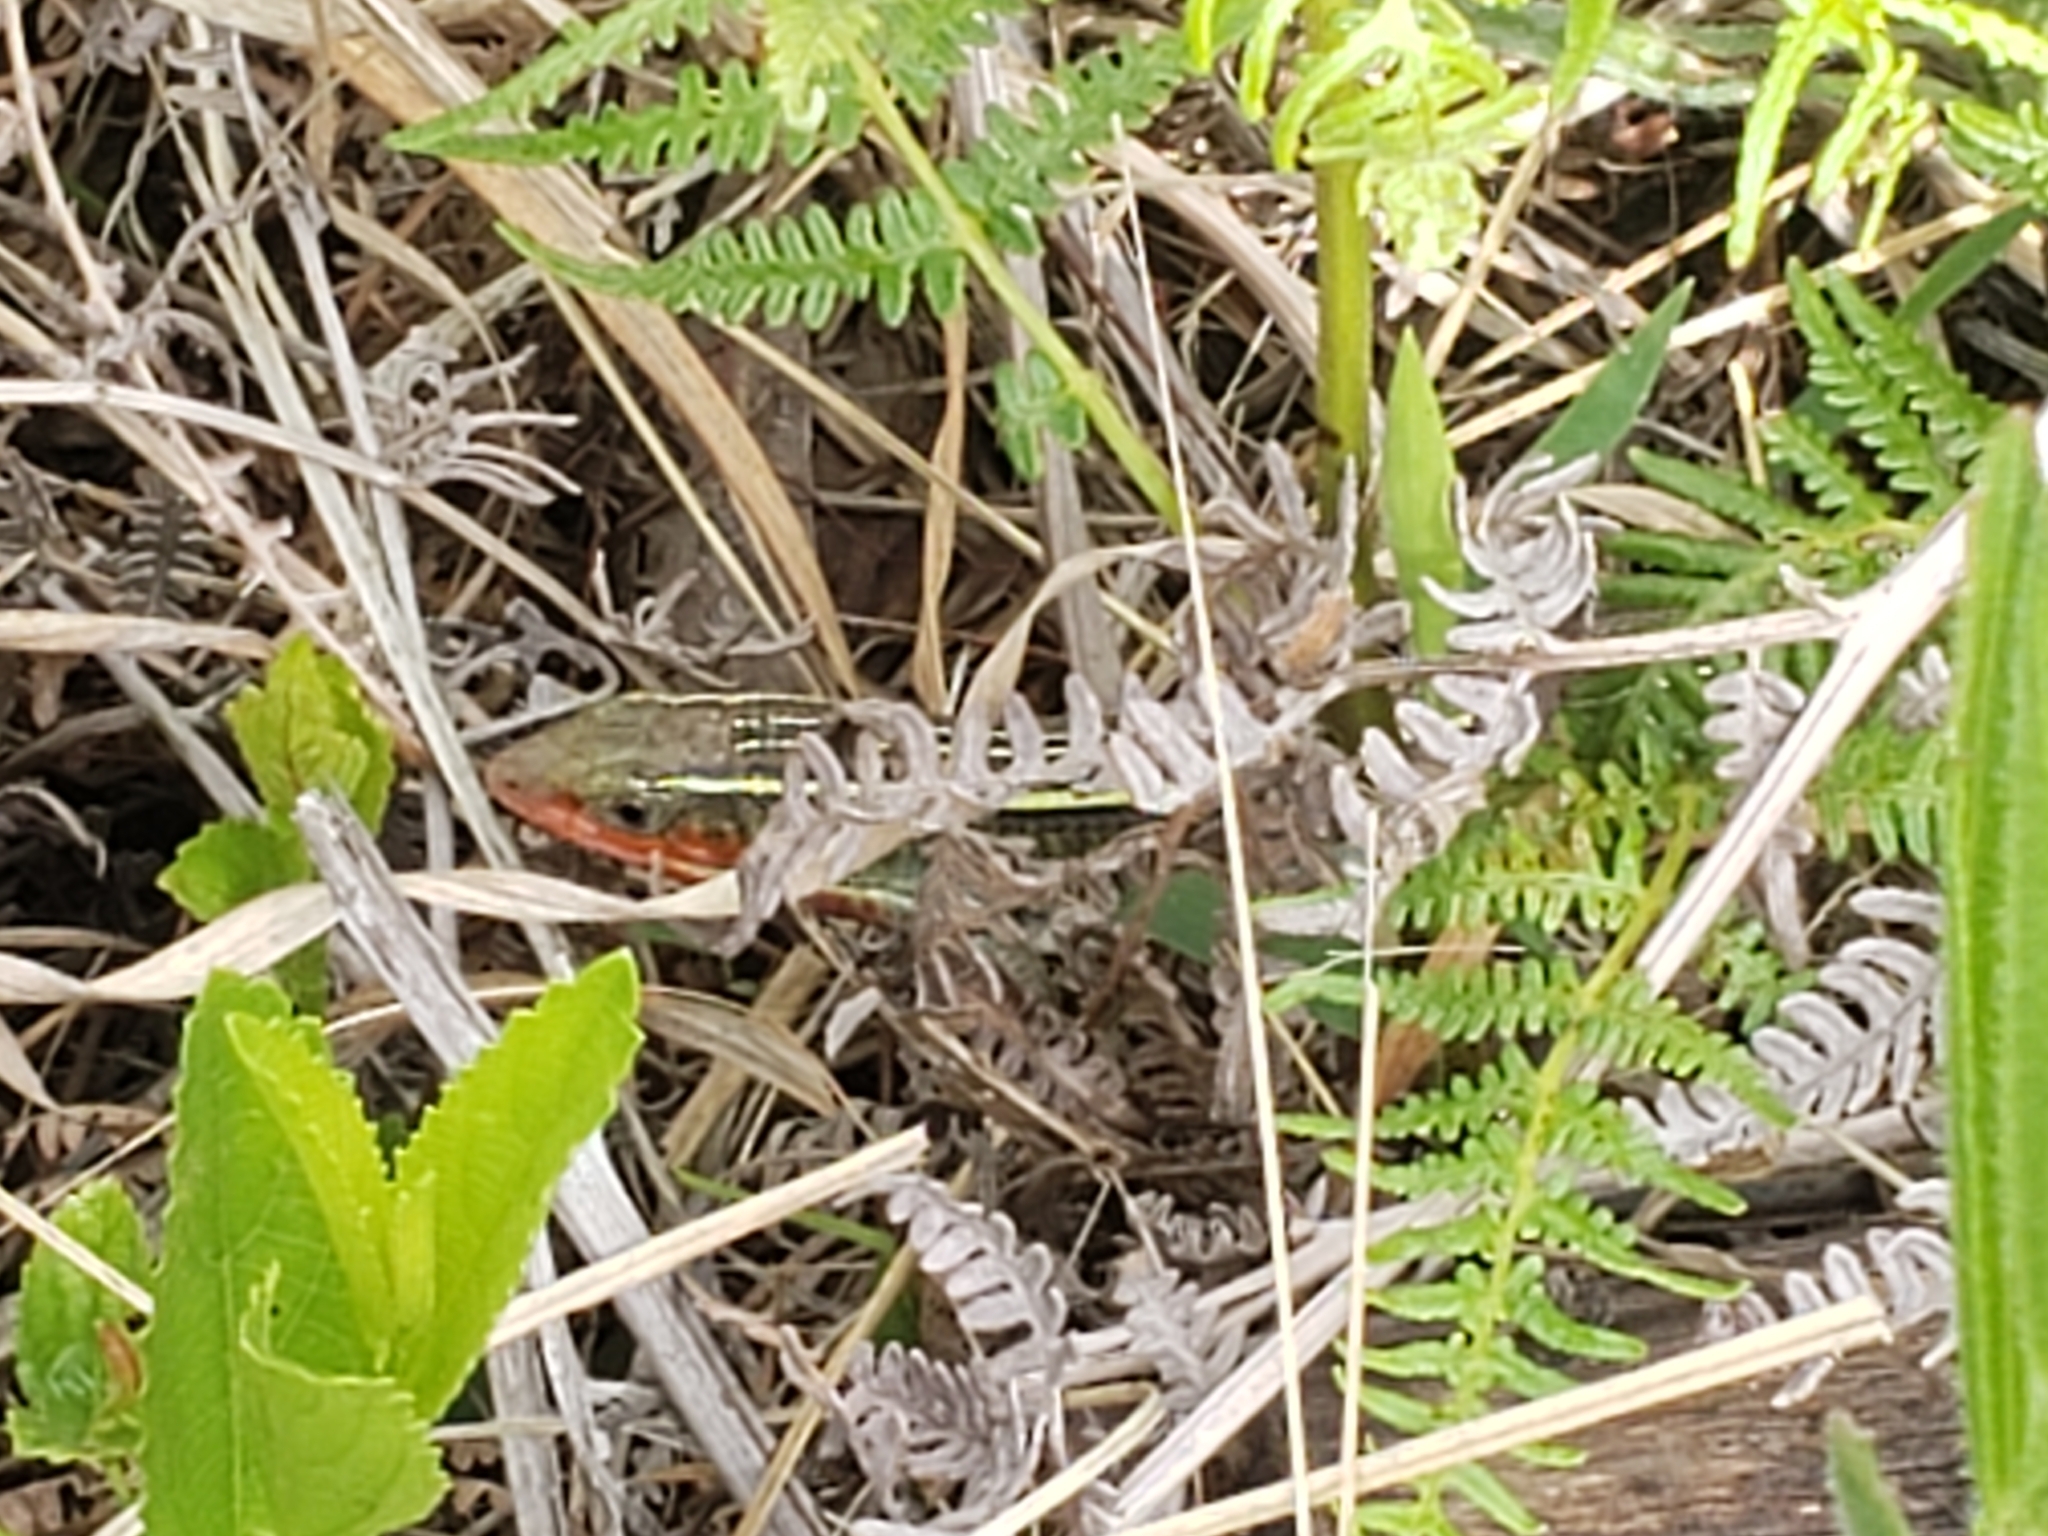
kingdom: Animalia
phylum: Chordata
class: Squamata
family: Gerrhosauridae
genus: Gerrhosaurus
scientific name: Gerrhosaurus flavigularis
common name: Yellow-throated plated lizard
